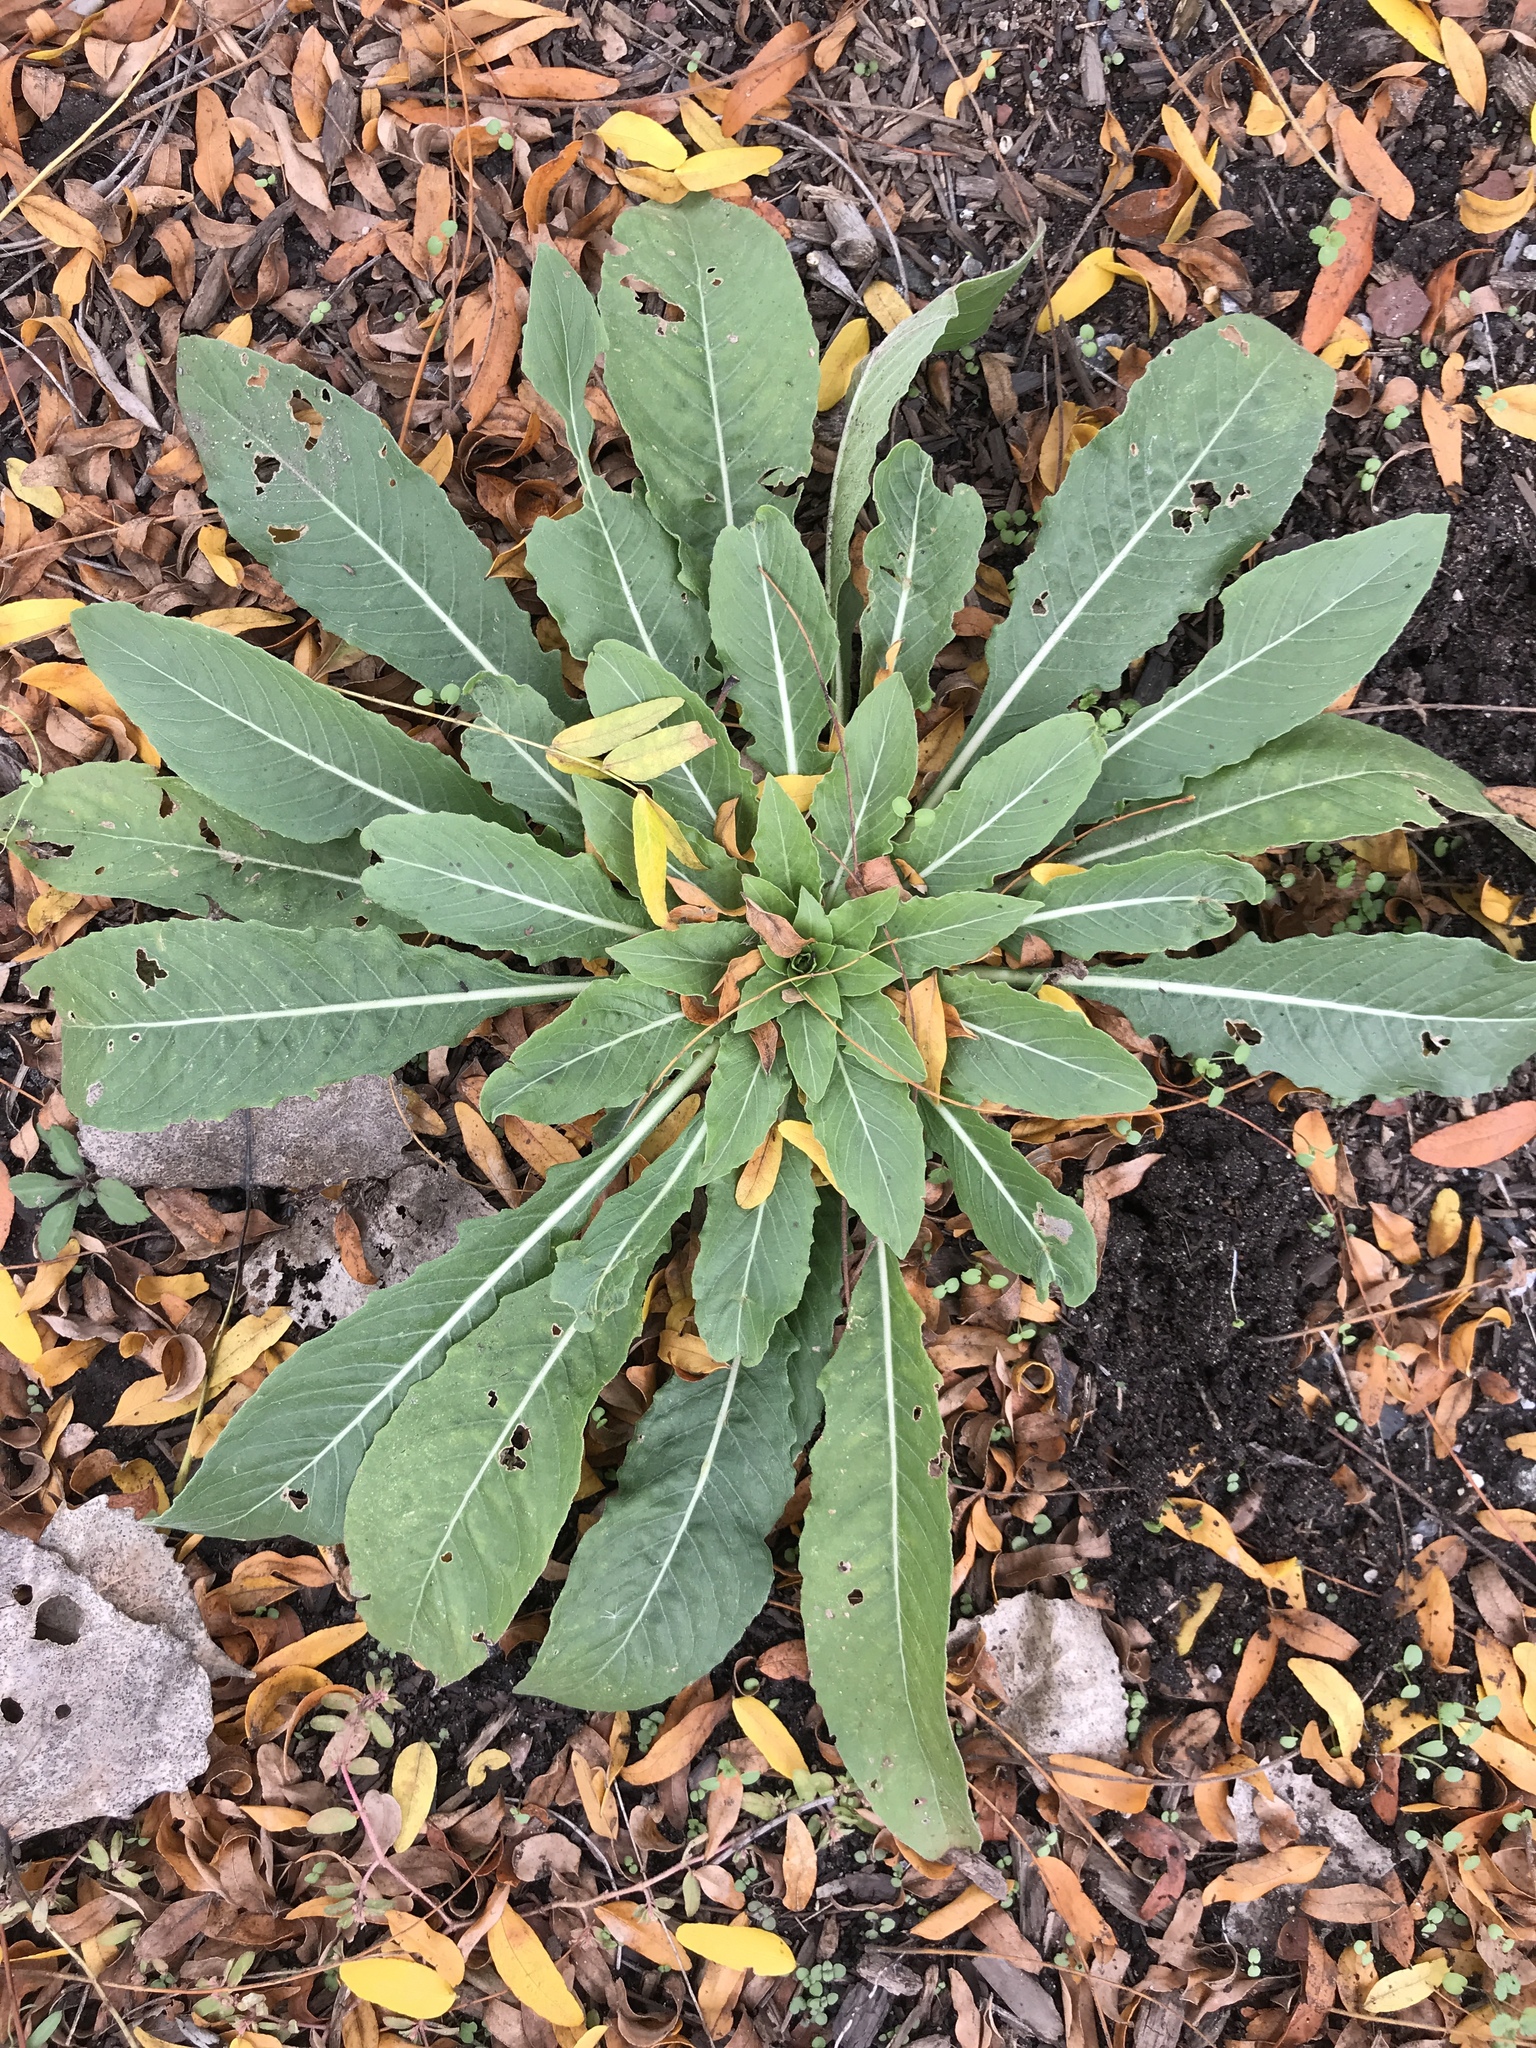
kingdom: Plantae
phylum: Tracheophyta
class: Magnoliopsida
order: Myrtales
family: Onagraceae
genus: Oenothera
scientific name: Oenothera biennis
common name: Common evening-primrose
